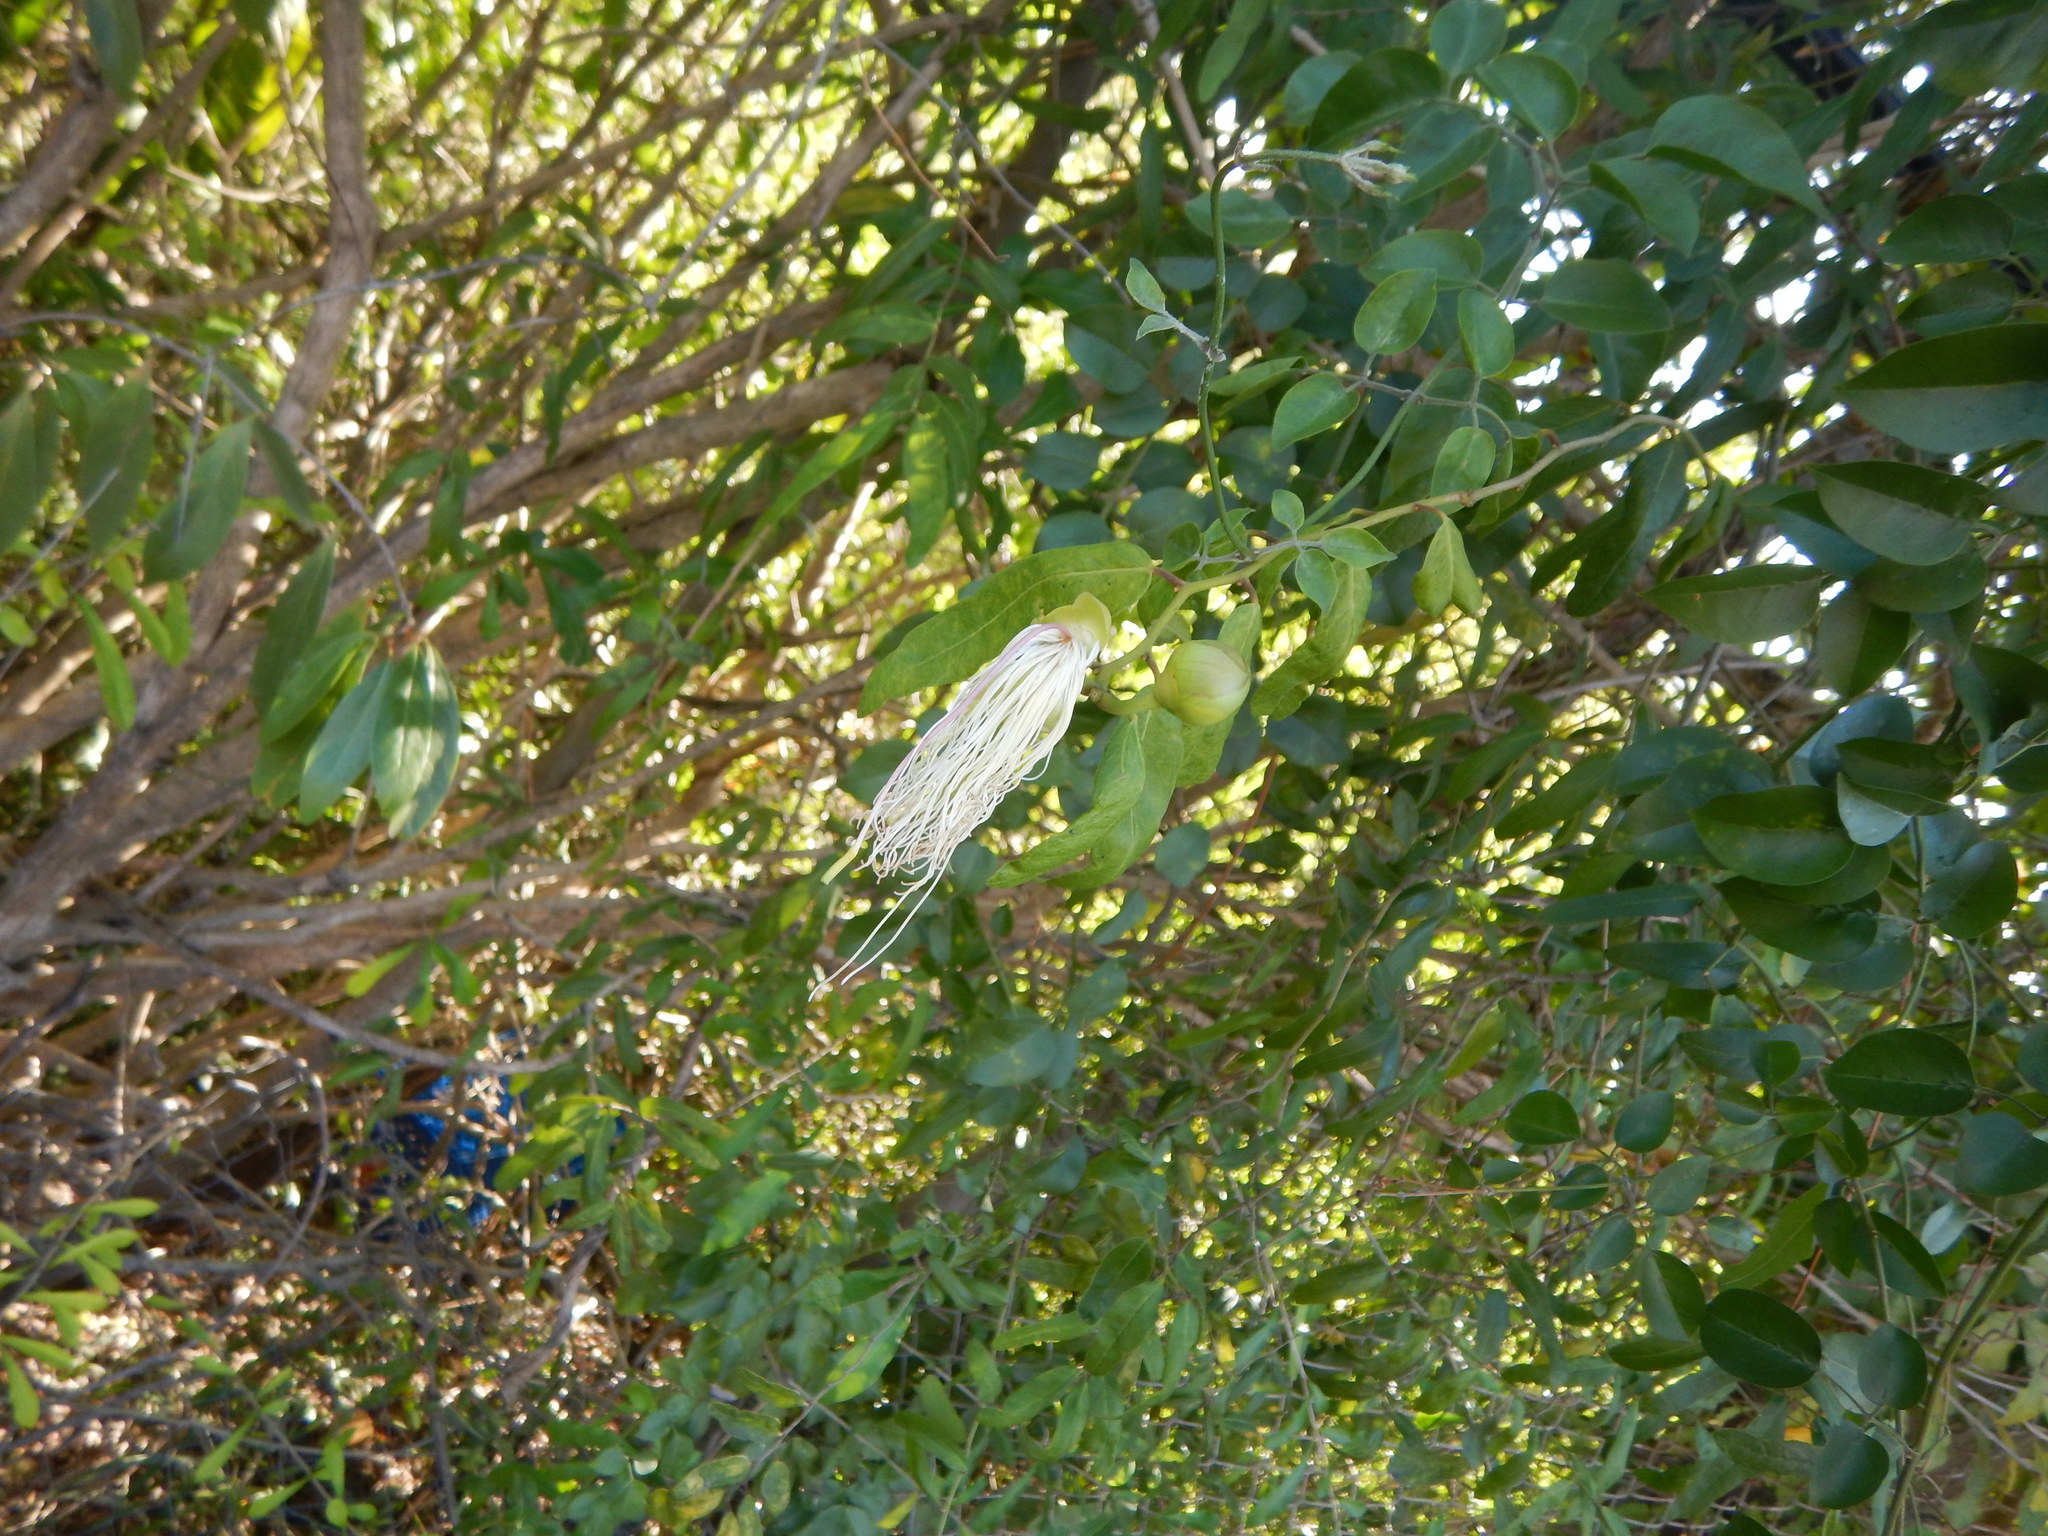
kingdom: Plantae
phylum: Tracheophyta
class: Magnoliopsida
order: Brassicales
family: Capparaceae
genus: Cynophalla
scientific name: Cynophalla flexuosa
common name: Capertree
